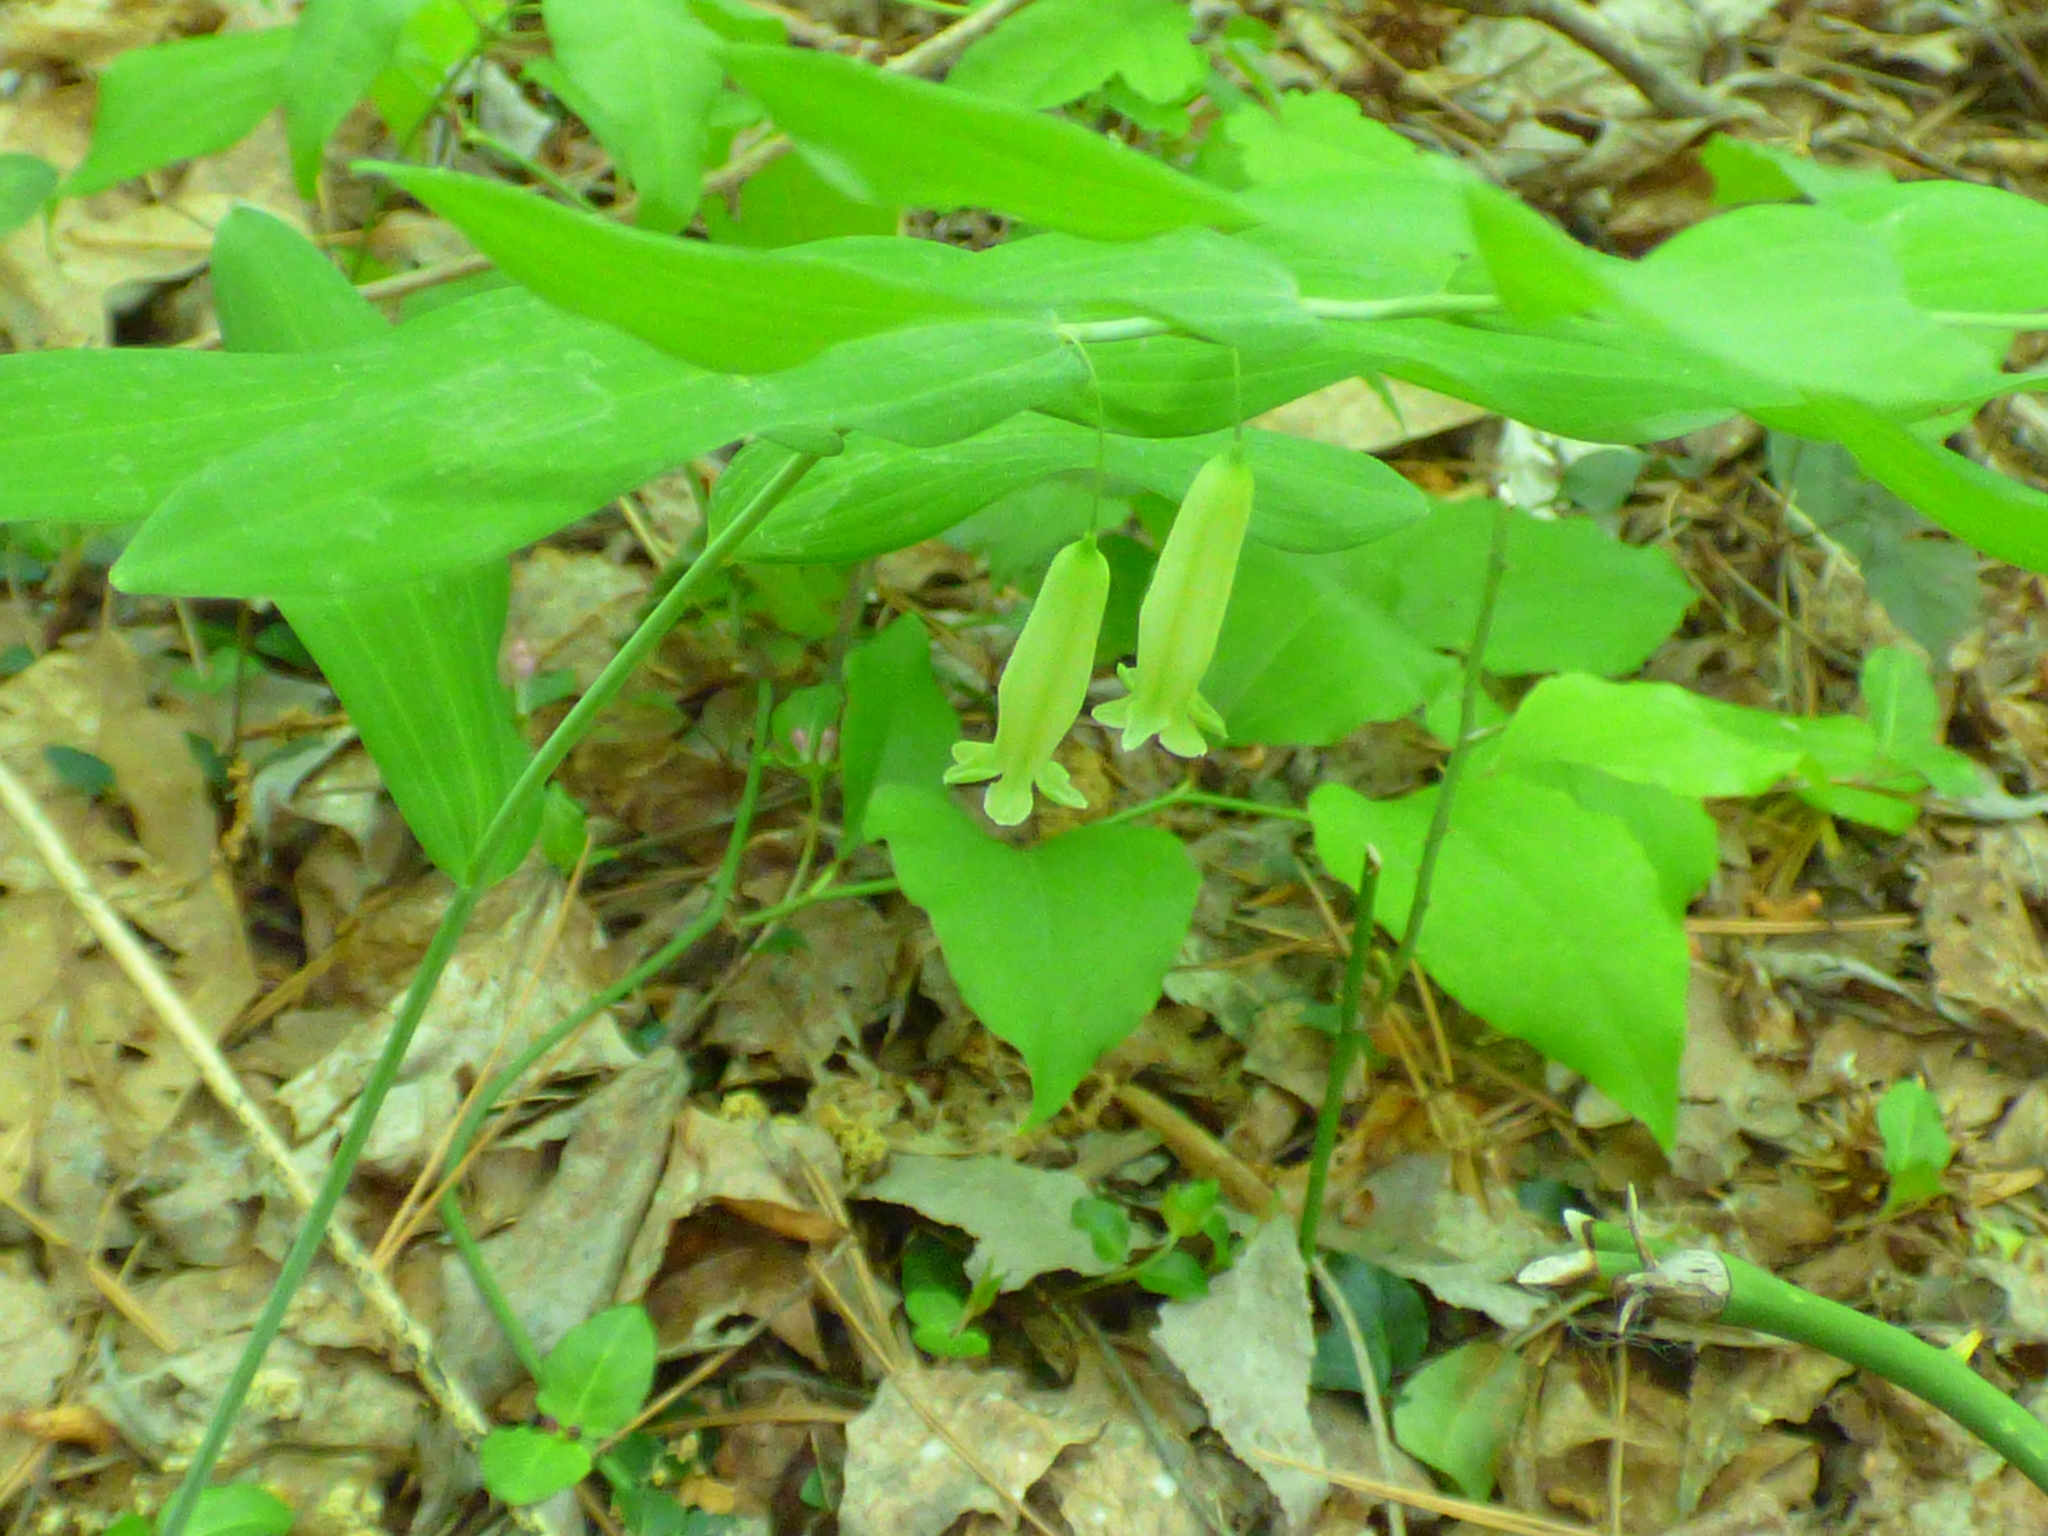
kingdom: Plantae
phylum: Tracheophyta
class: Liliopsida
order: Asparagales
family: Asparagaceae
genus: Polygonatum
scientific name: Polygonatum biflorum
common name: American solomon's-seal
